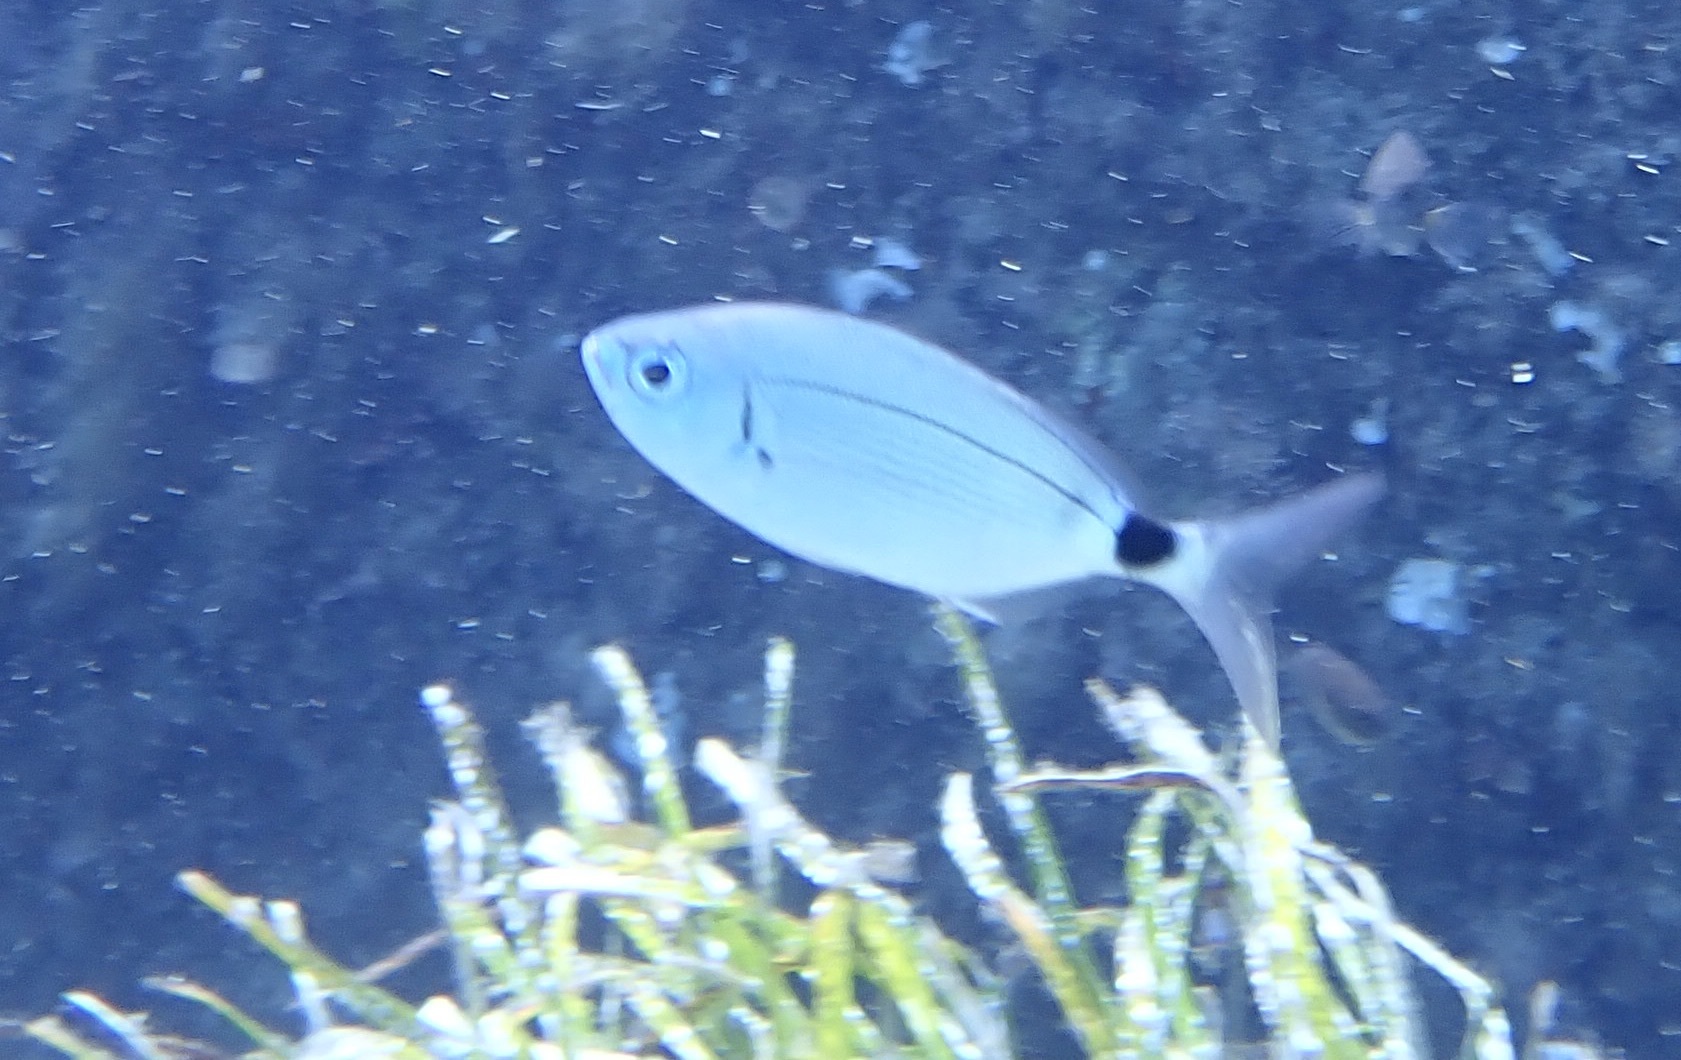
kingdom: Animalia
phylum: Chordata
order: Perciformes
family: Sparidae
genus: Oblada
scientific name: Oblada melanura
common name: Saddled seabream
